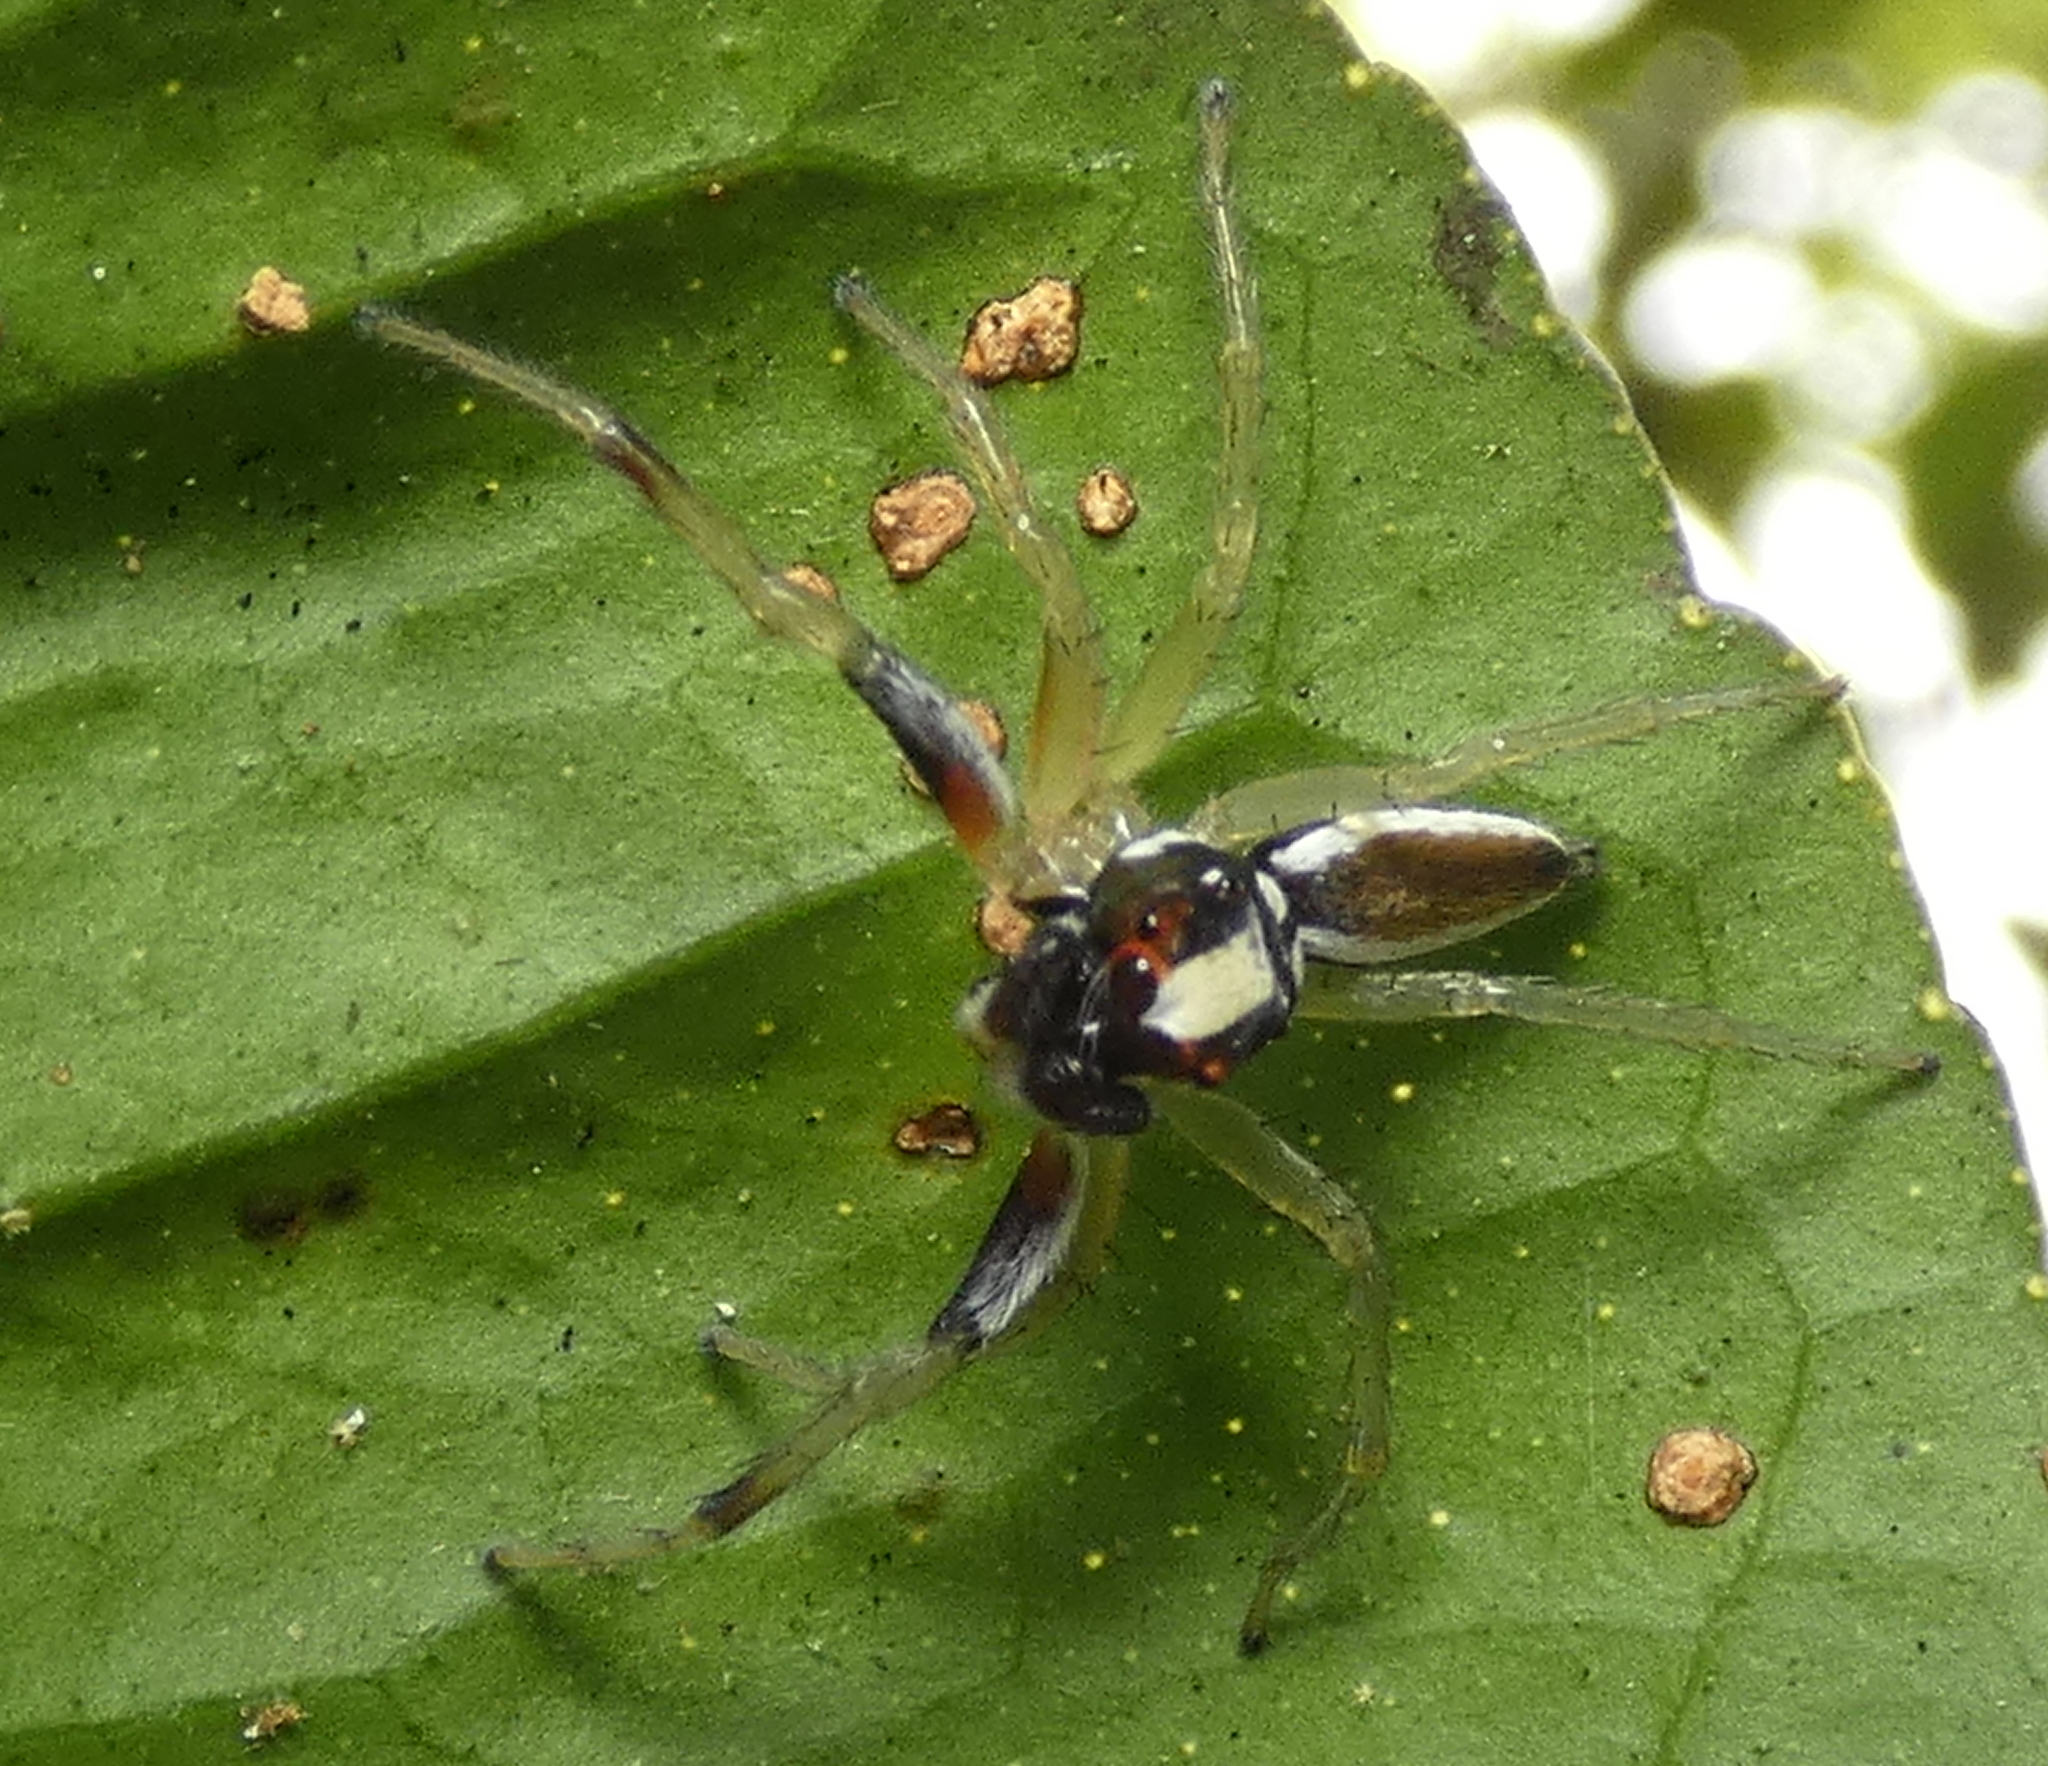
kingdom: Animalia
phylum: Arthropoda
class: Arachnida
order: Araneae
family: Salticidae
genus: Chira
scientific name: Chira spinosa
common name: Jumping spiders
